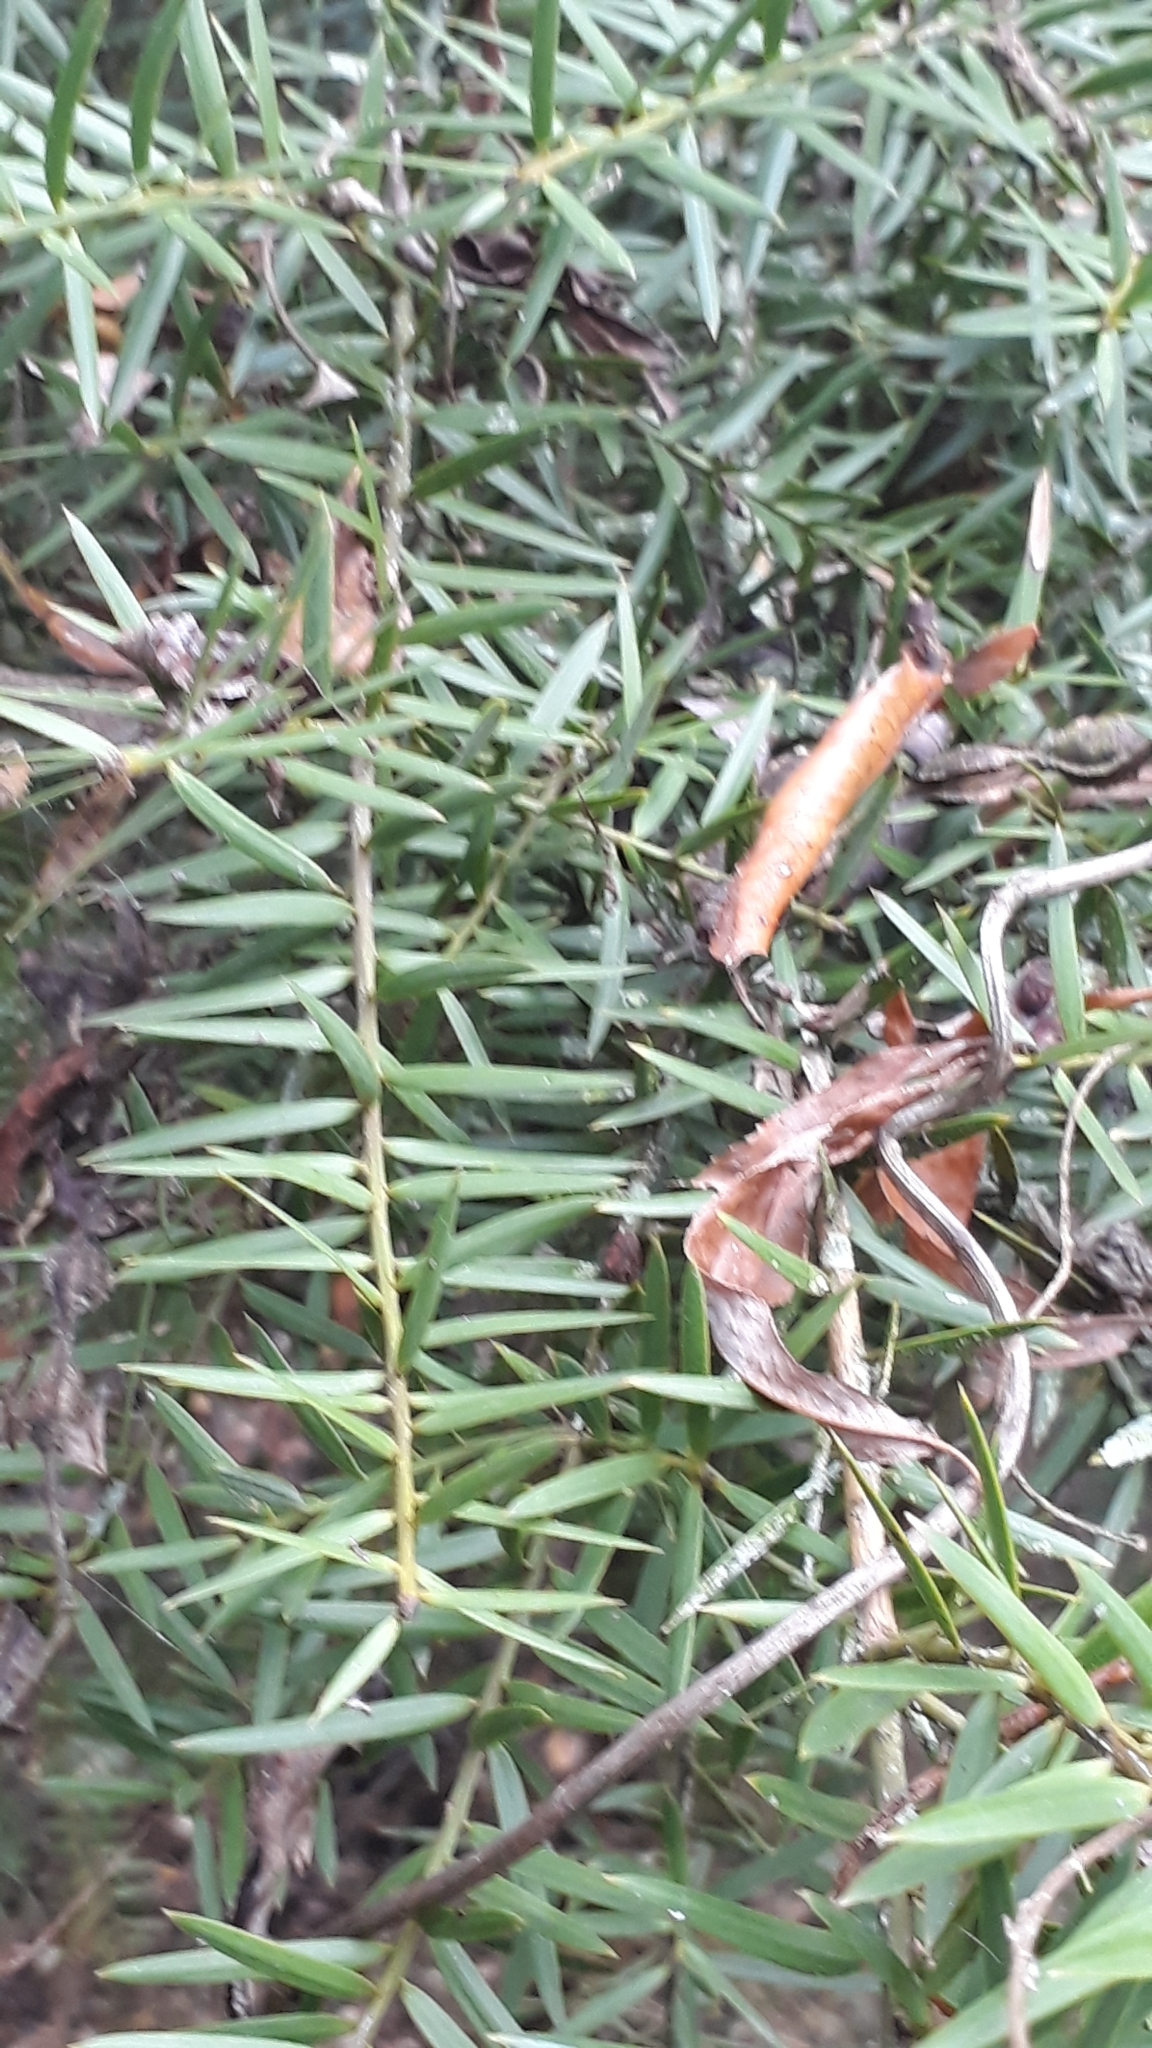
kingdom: Plantae
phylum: Tracheophyta
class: Pinopsida
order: Pinales
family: Podocarpaceae
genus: Podocarpus
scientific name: Podocarpus laetus
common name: Hall's totara
